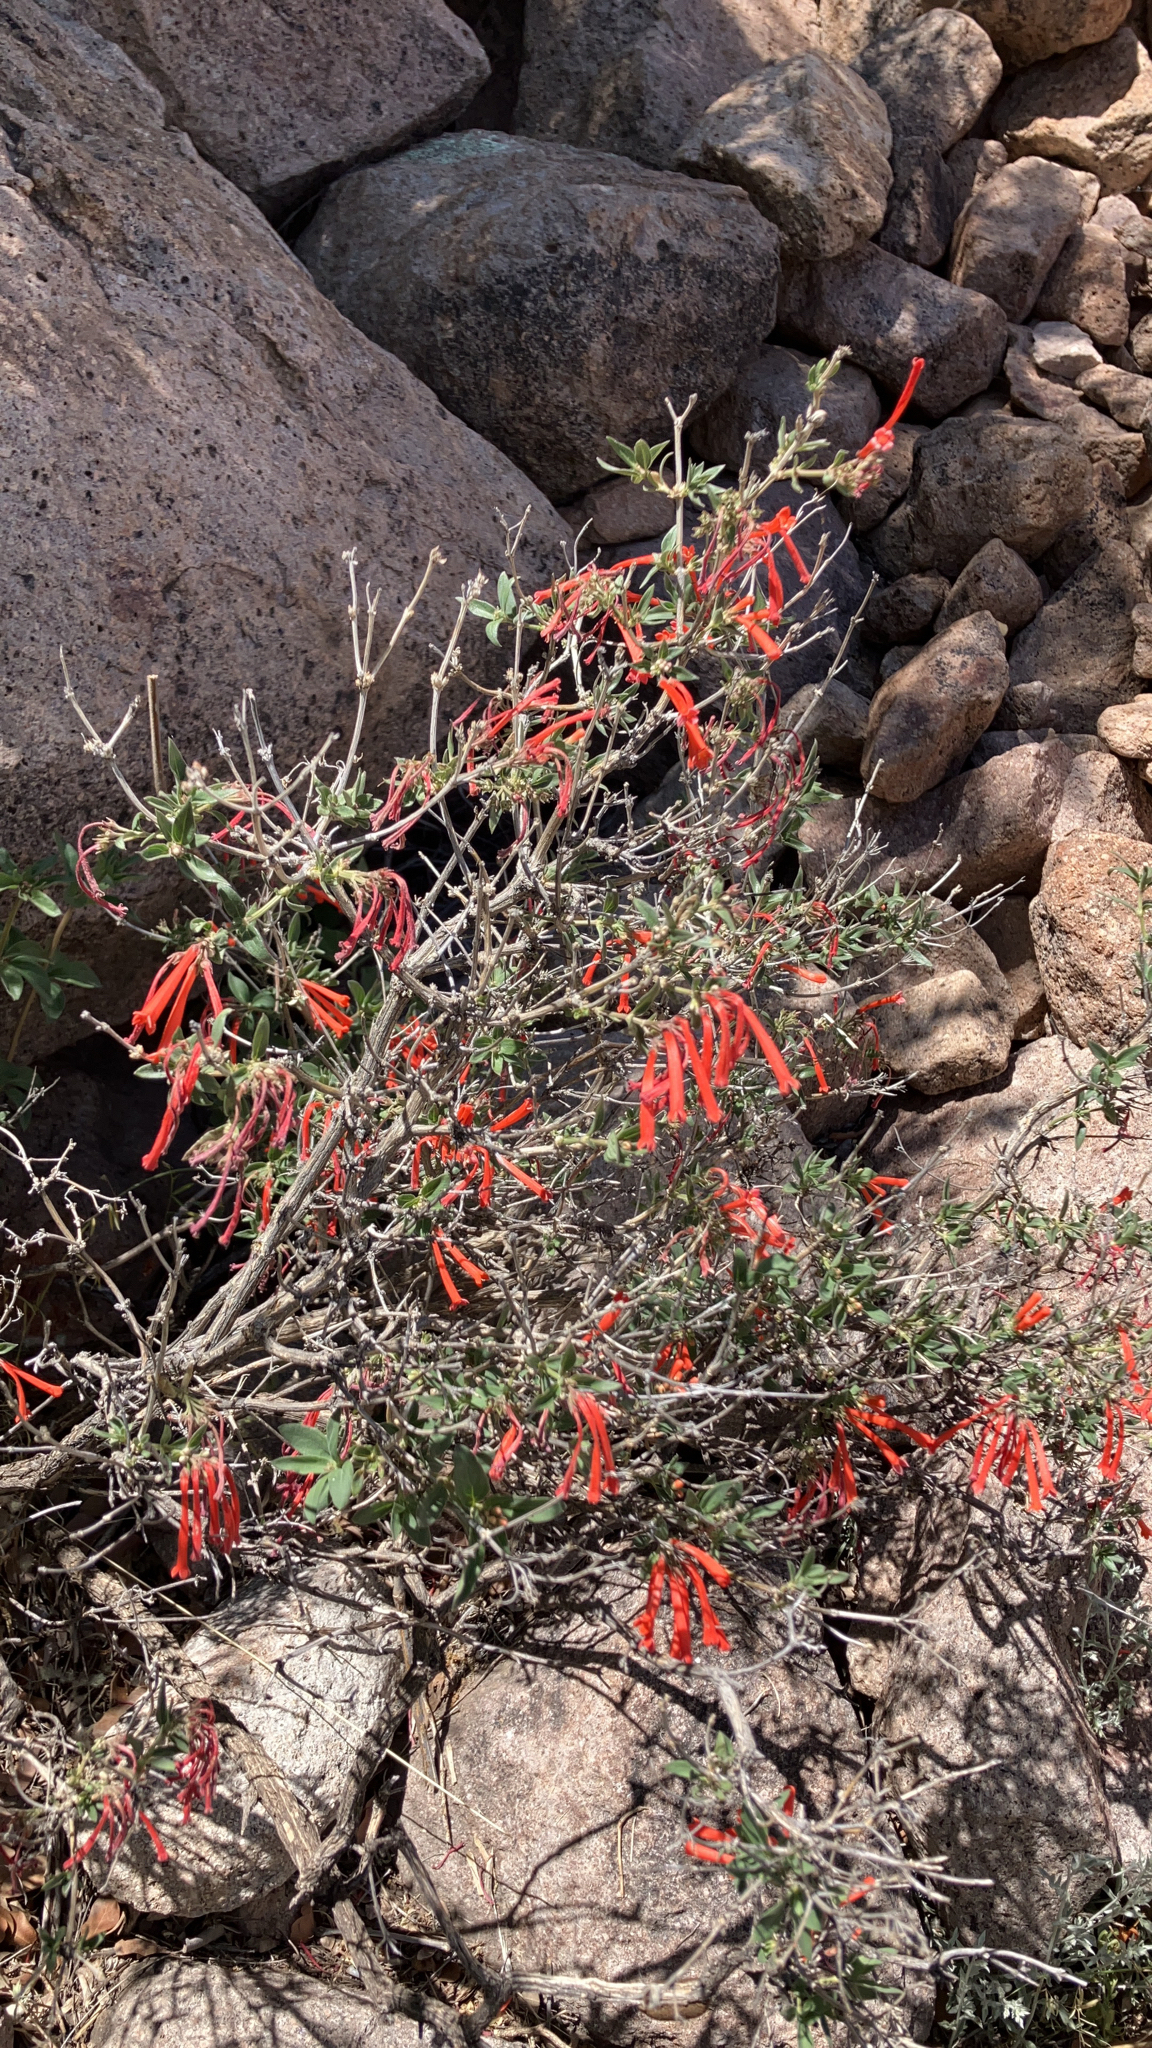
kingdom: Plantae
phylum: Tracheophyta
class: Magnoliopsida
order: Myrtales
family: Onagraceae
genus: Epilobium
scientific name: Epilobium canum
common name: California-fuchsia
